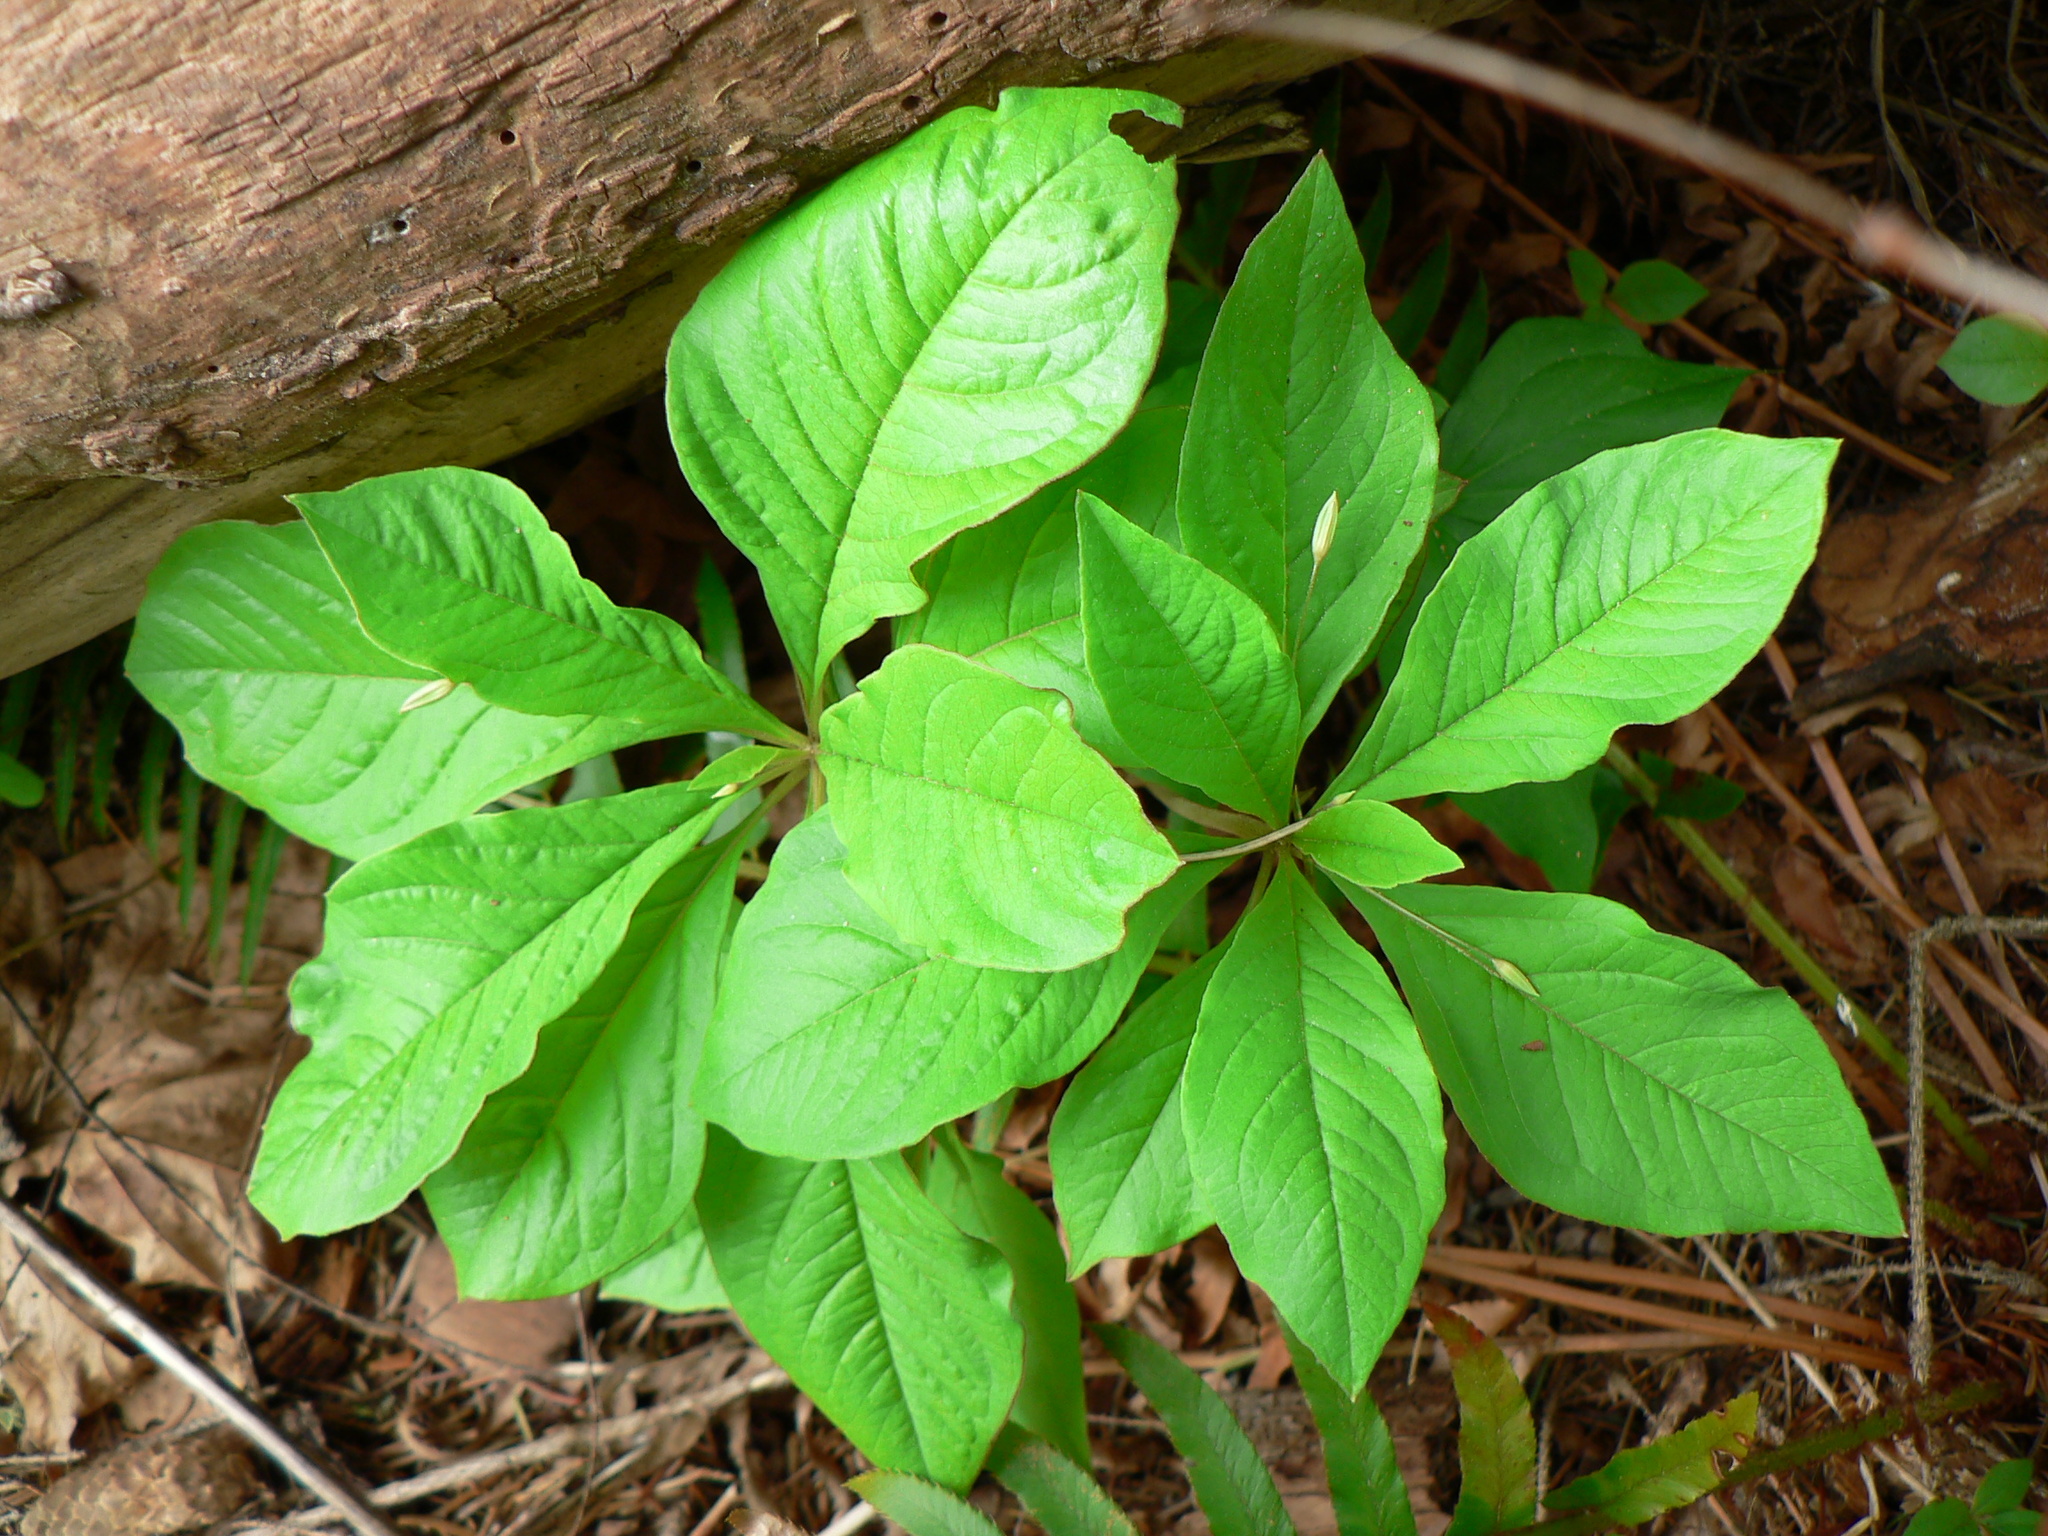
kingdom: Plantae
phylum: Tracheophyta
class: Magnoliopsida
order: Ericales
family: Primulaceae
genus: Lysimachia
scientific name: Lysimachia latifolia
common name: Pacific starflower
